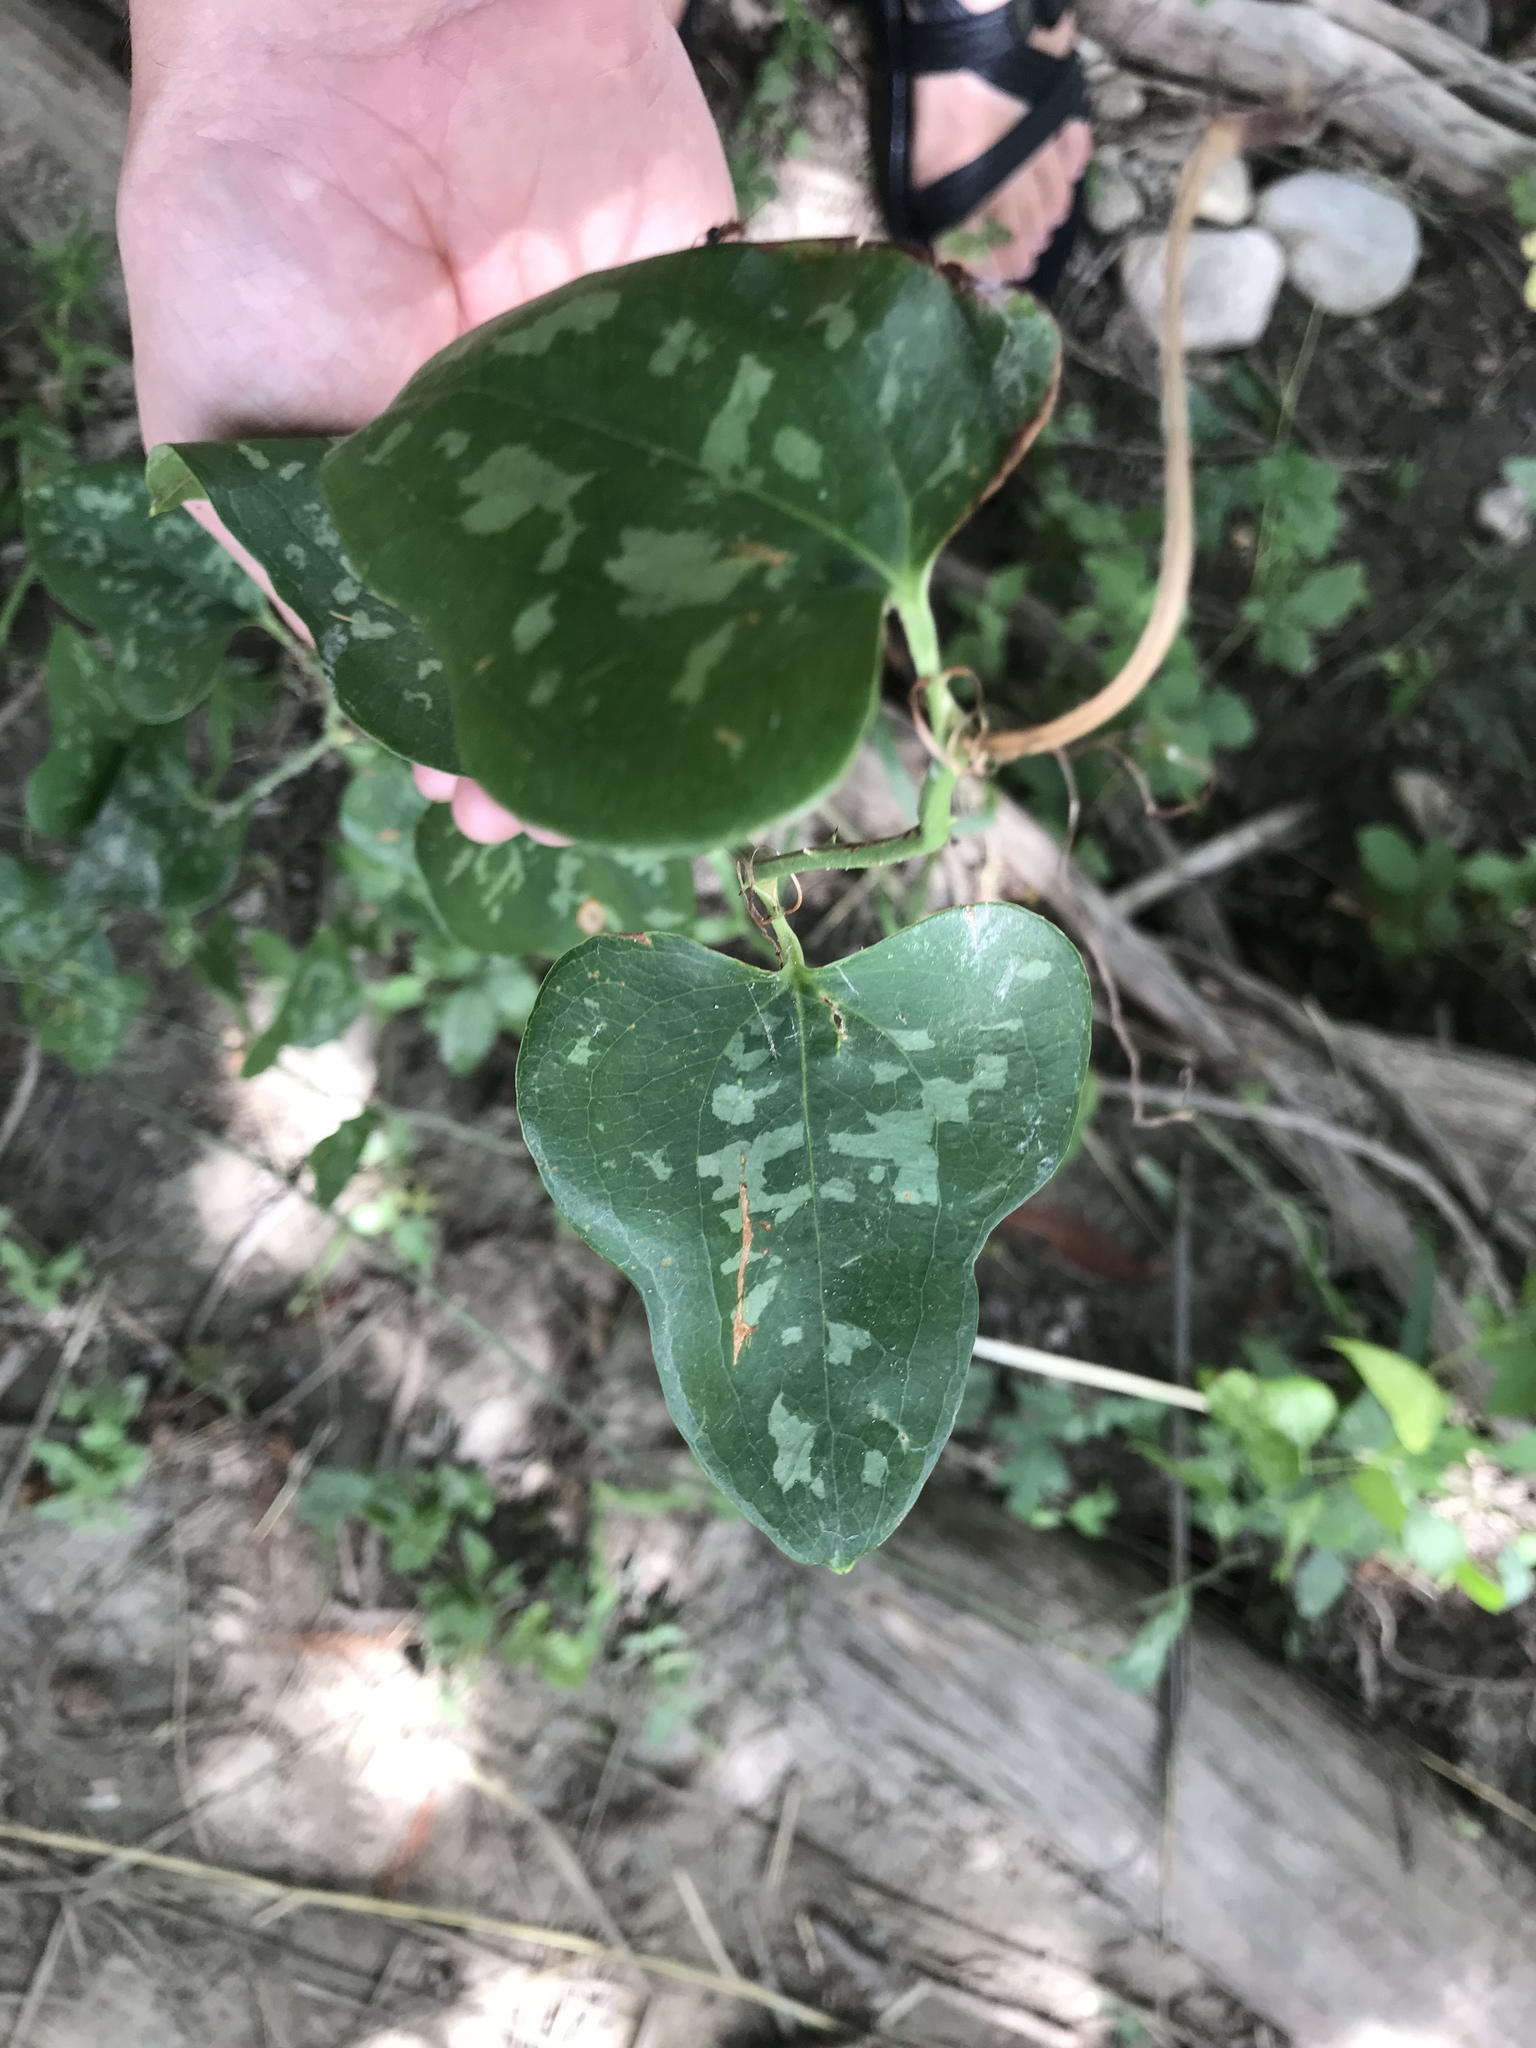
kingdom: Plantae
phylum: Tracheophyta
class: Liliopsida
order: Liliales
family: Smilacaceae
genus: Smilax
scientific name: Smilax bona-nox
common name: Catbrier
